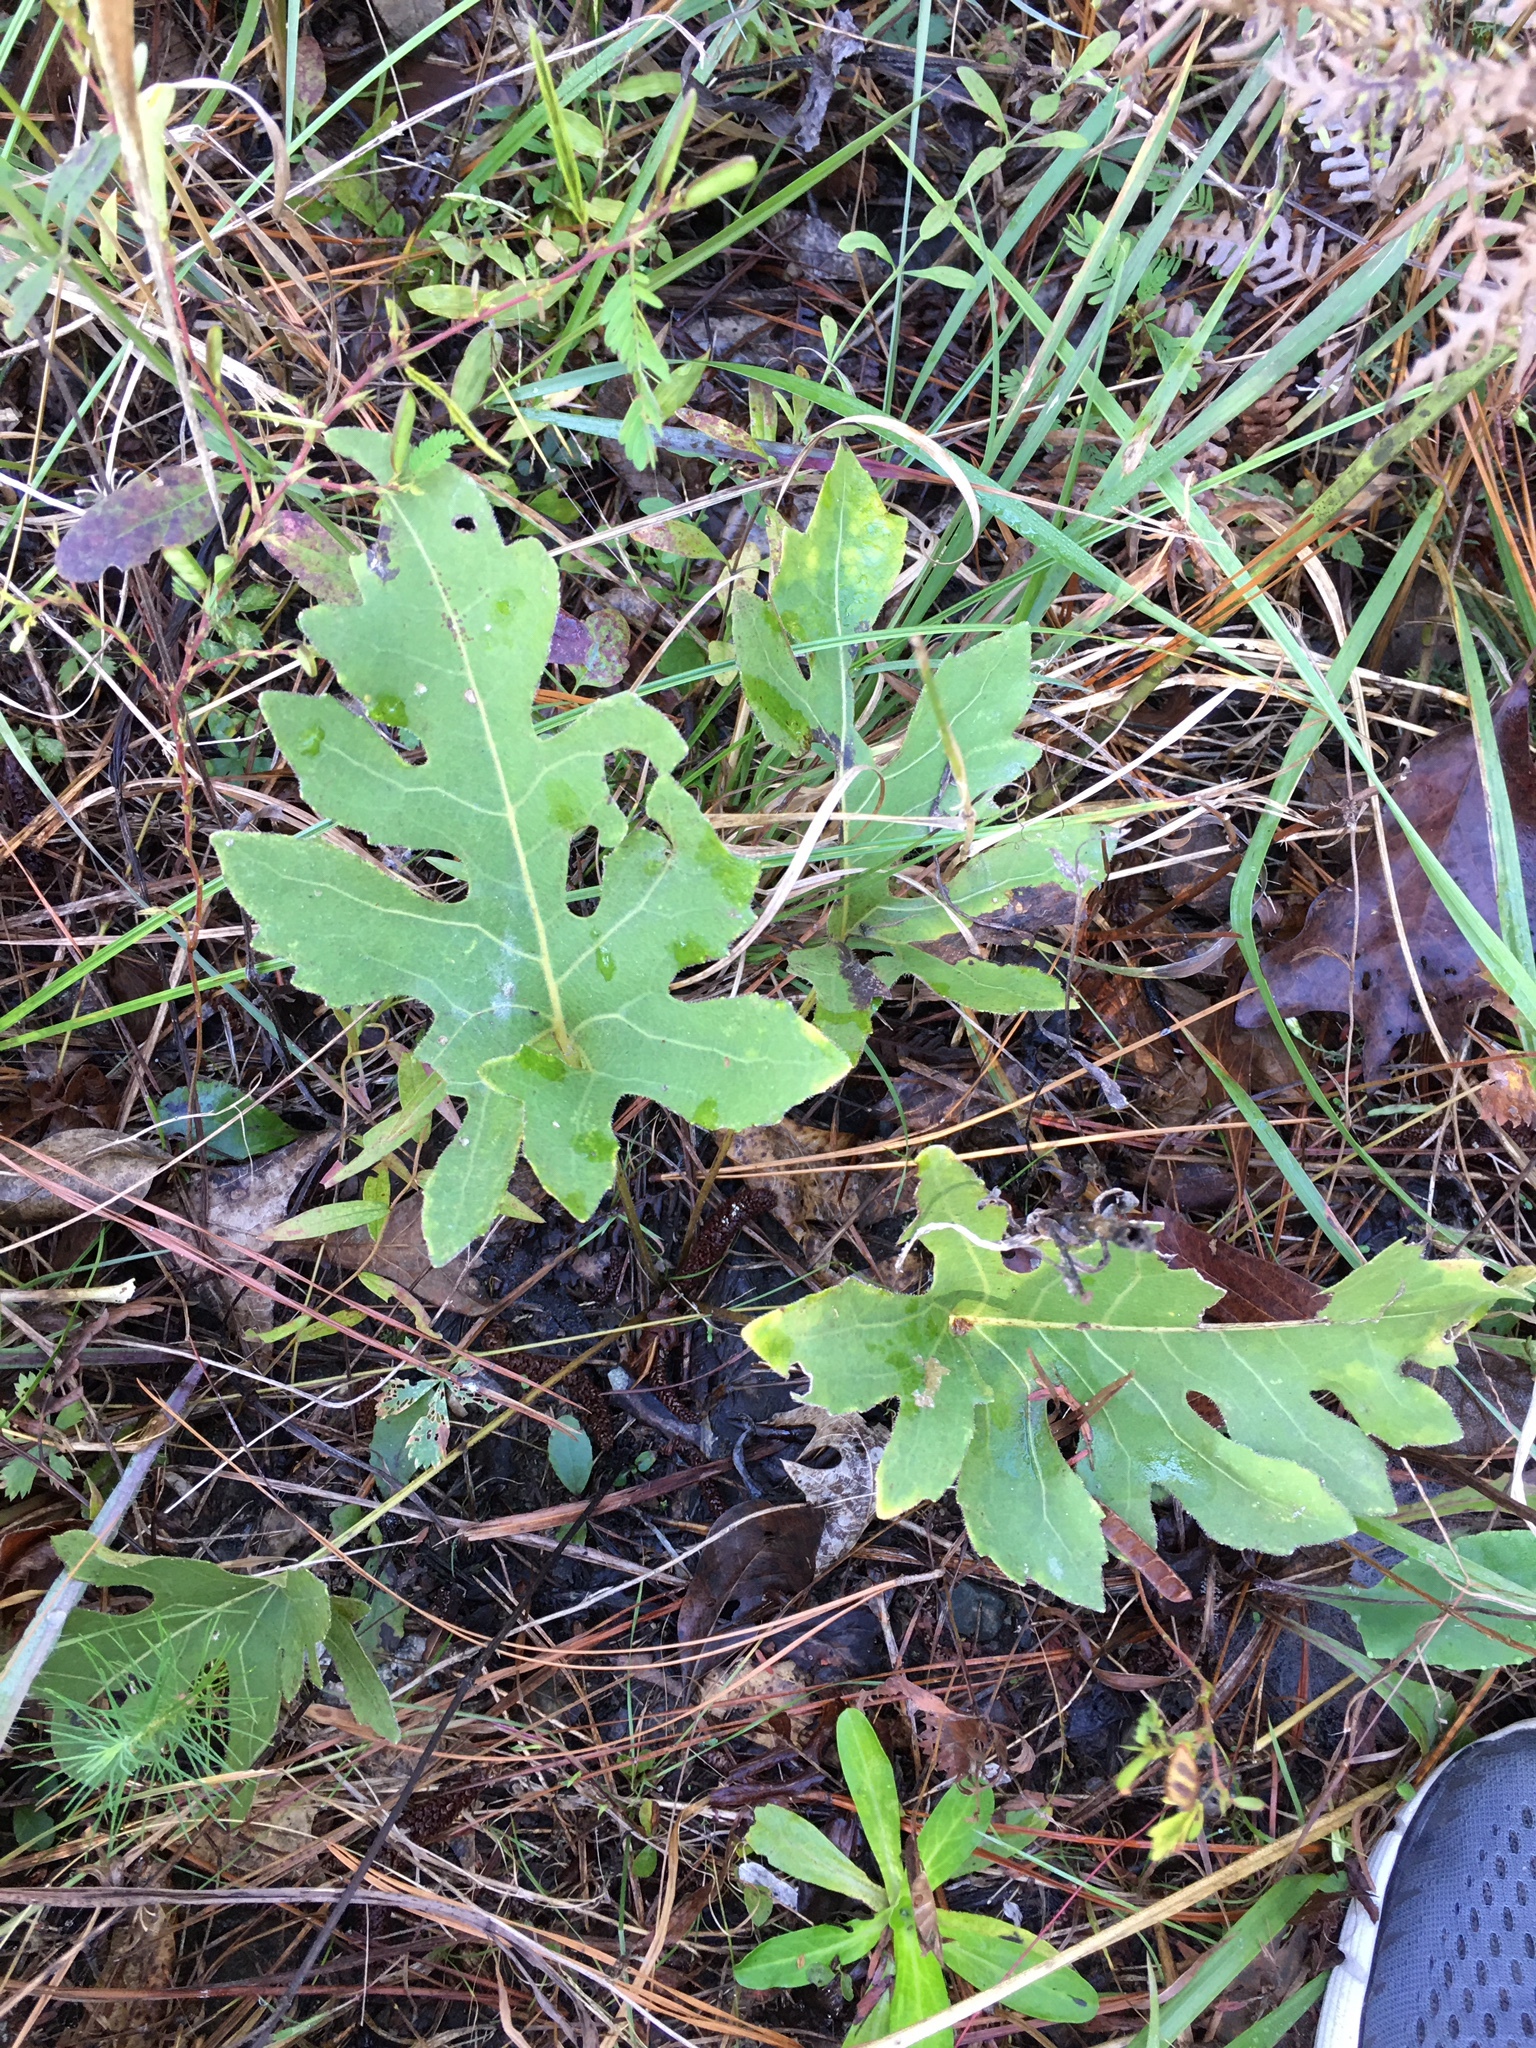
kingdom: Plantae
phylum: Tracheophyta
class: Magnoliopsida
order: Asterales
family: Asteraceae
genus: Silphium
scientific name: Silphium compositum
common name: Lesser basal-leaf rosinweed
